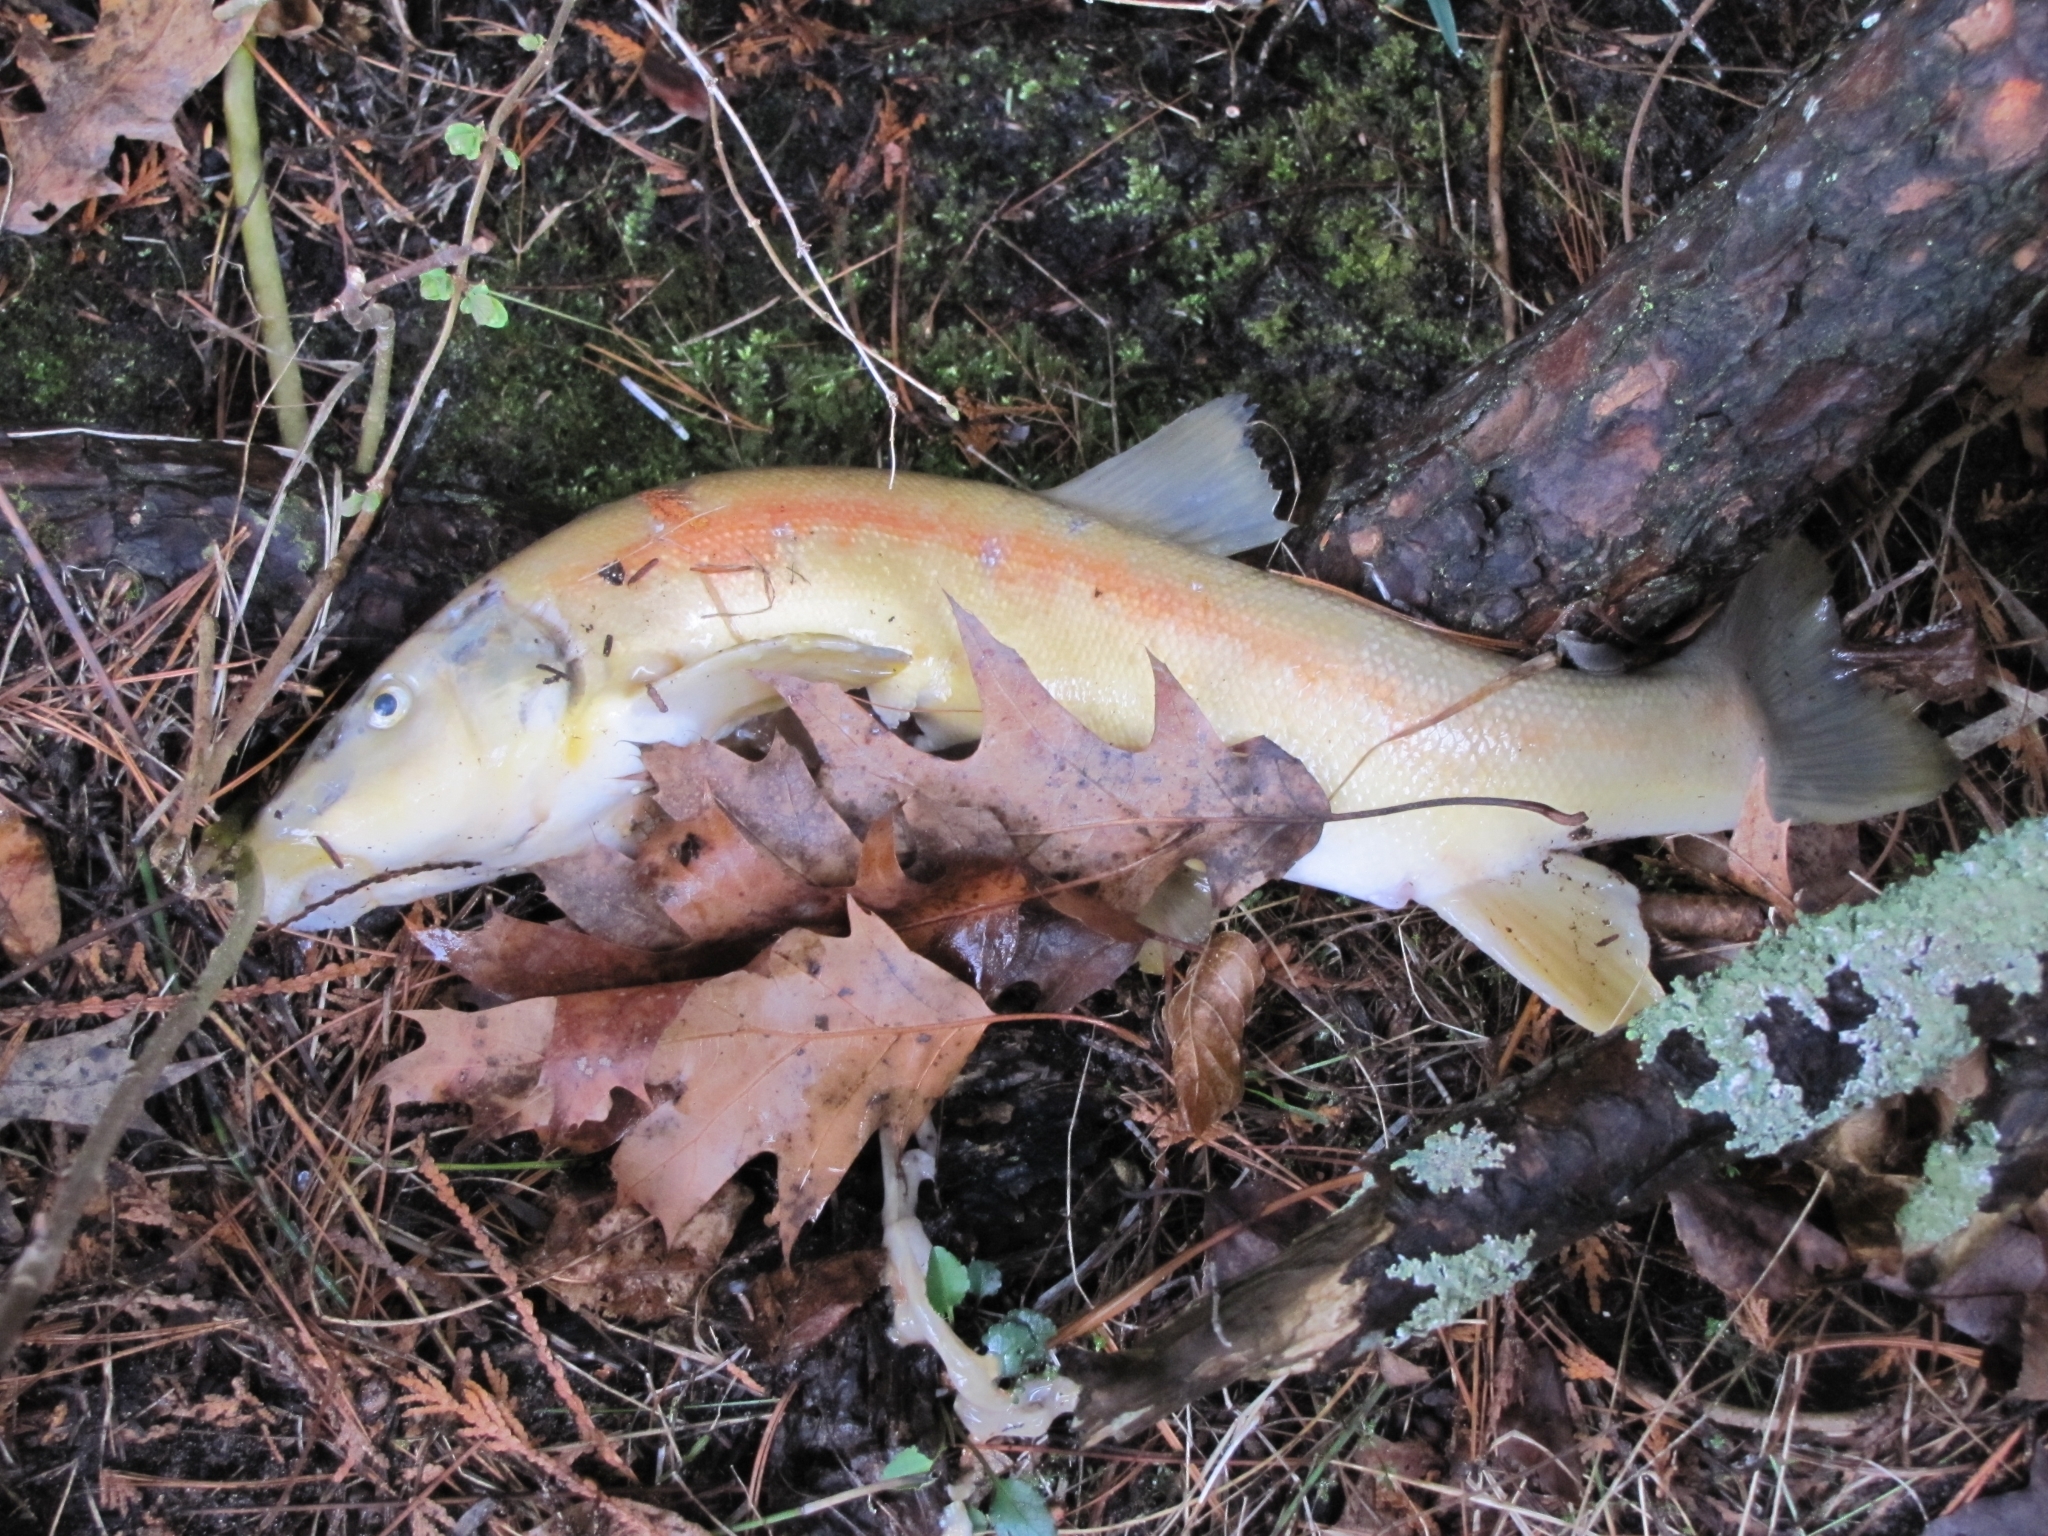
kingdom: Animalia
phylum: Chordata
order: Cypriniformes
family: Catostomidae
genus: Catostomus
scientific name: Catostomus catostomus
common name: Longnose sucker
